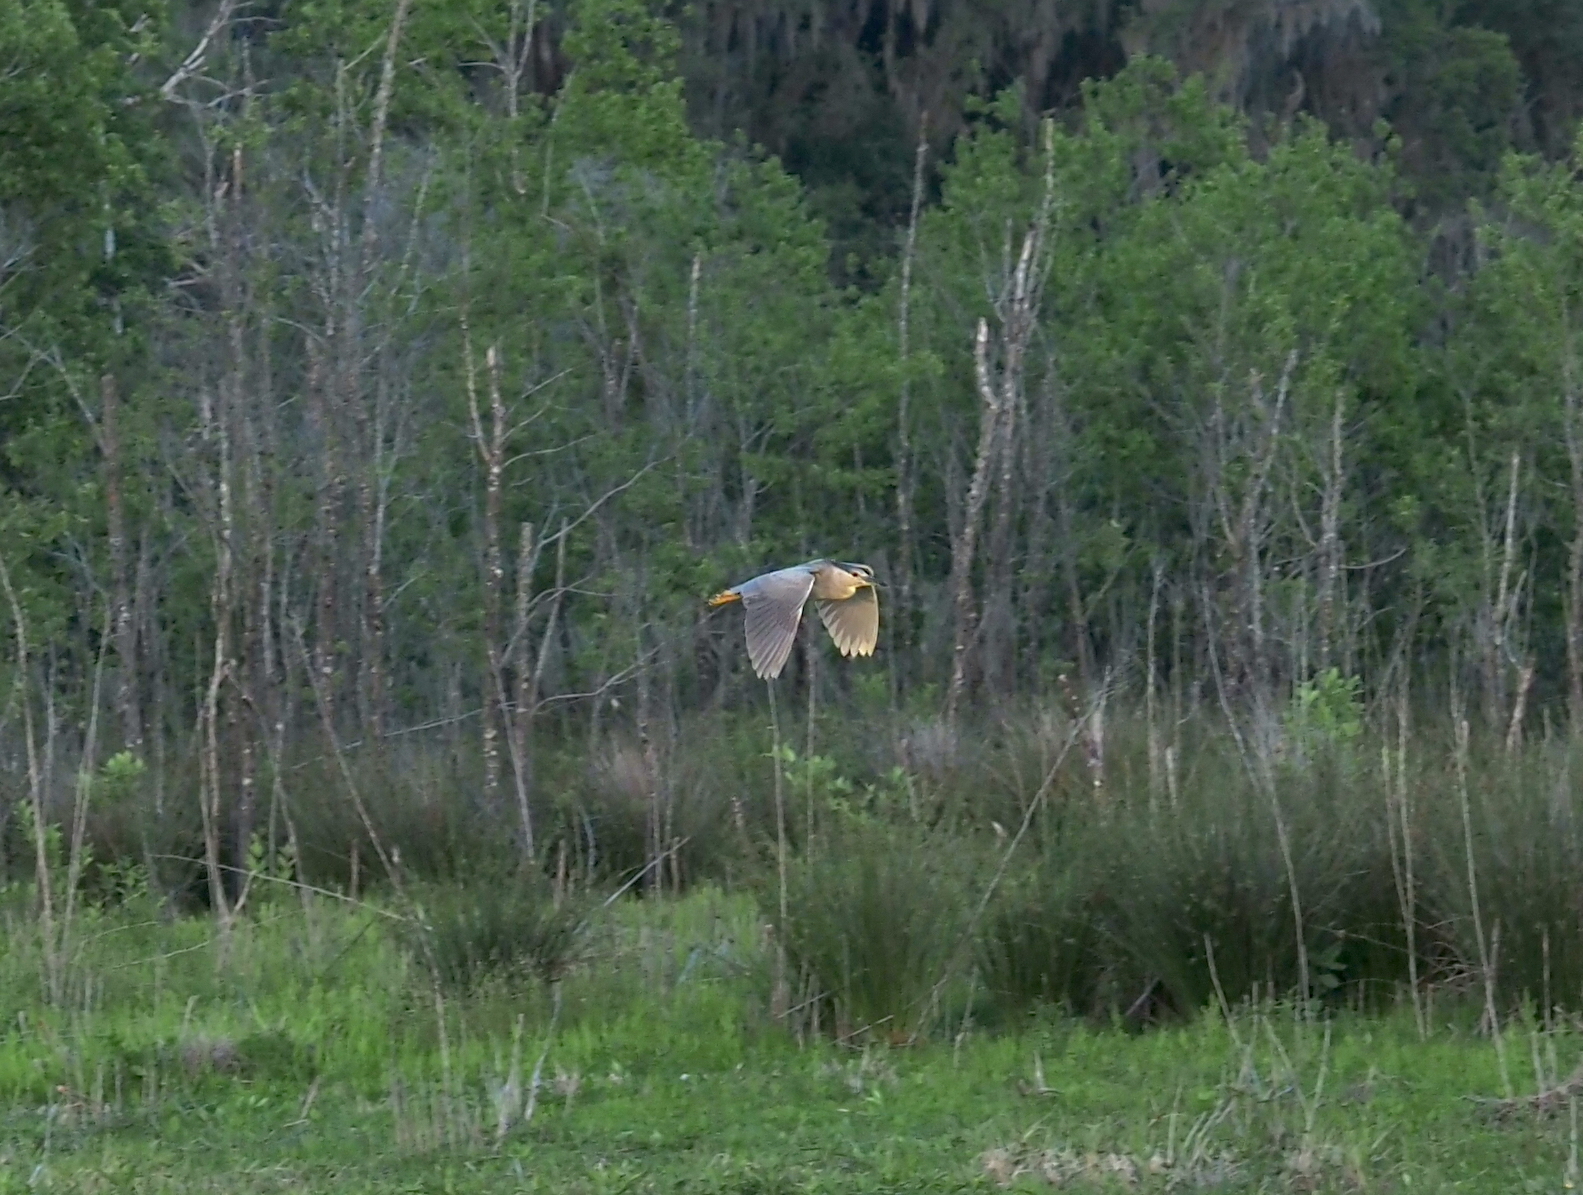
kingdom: Animalia
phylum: Chordata
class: Aves
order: Pelecaniformes
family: Ardeidae
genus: Nycticorax
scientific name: Nycticorax nycticorax
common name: Black-crowned night heron
